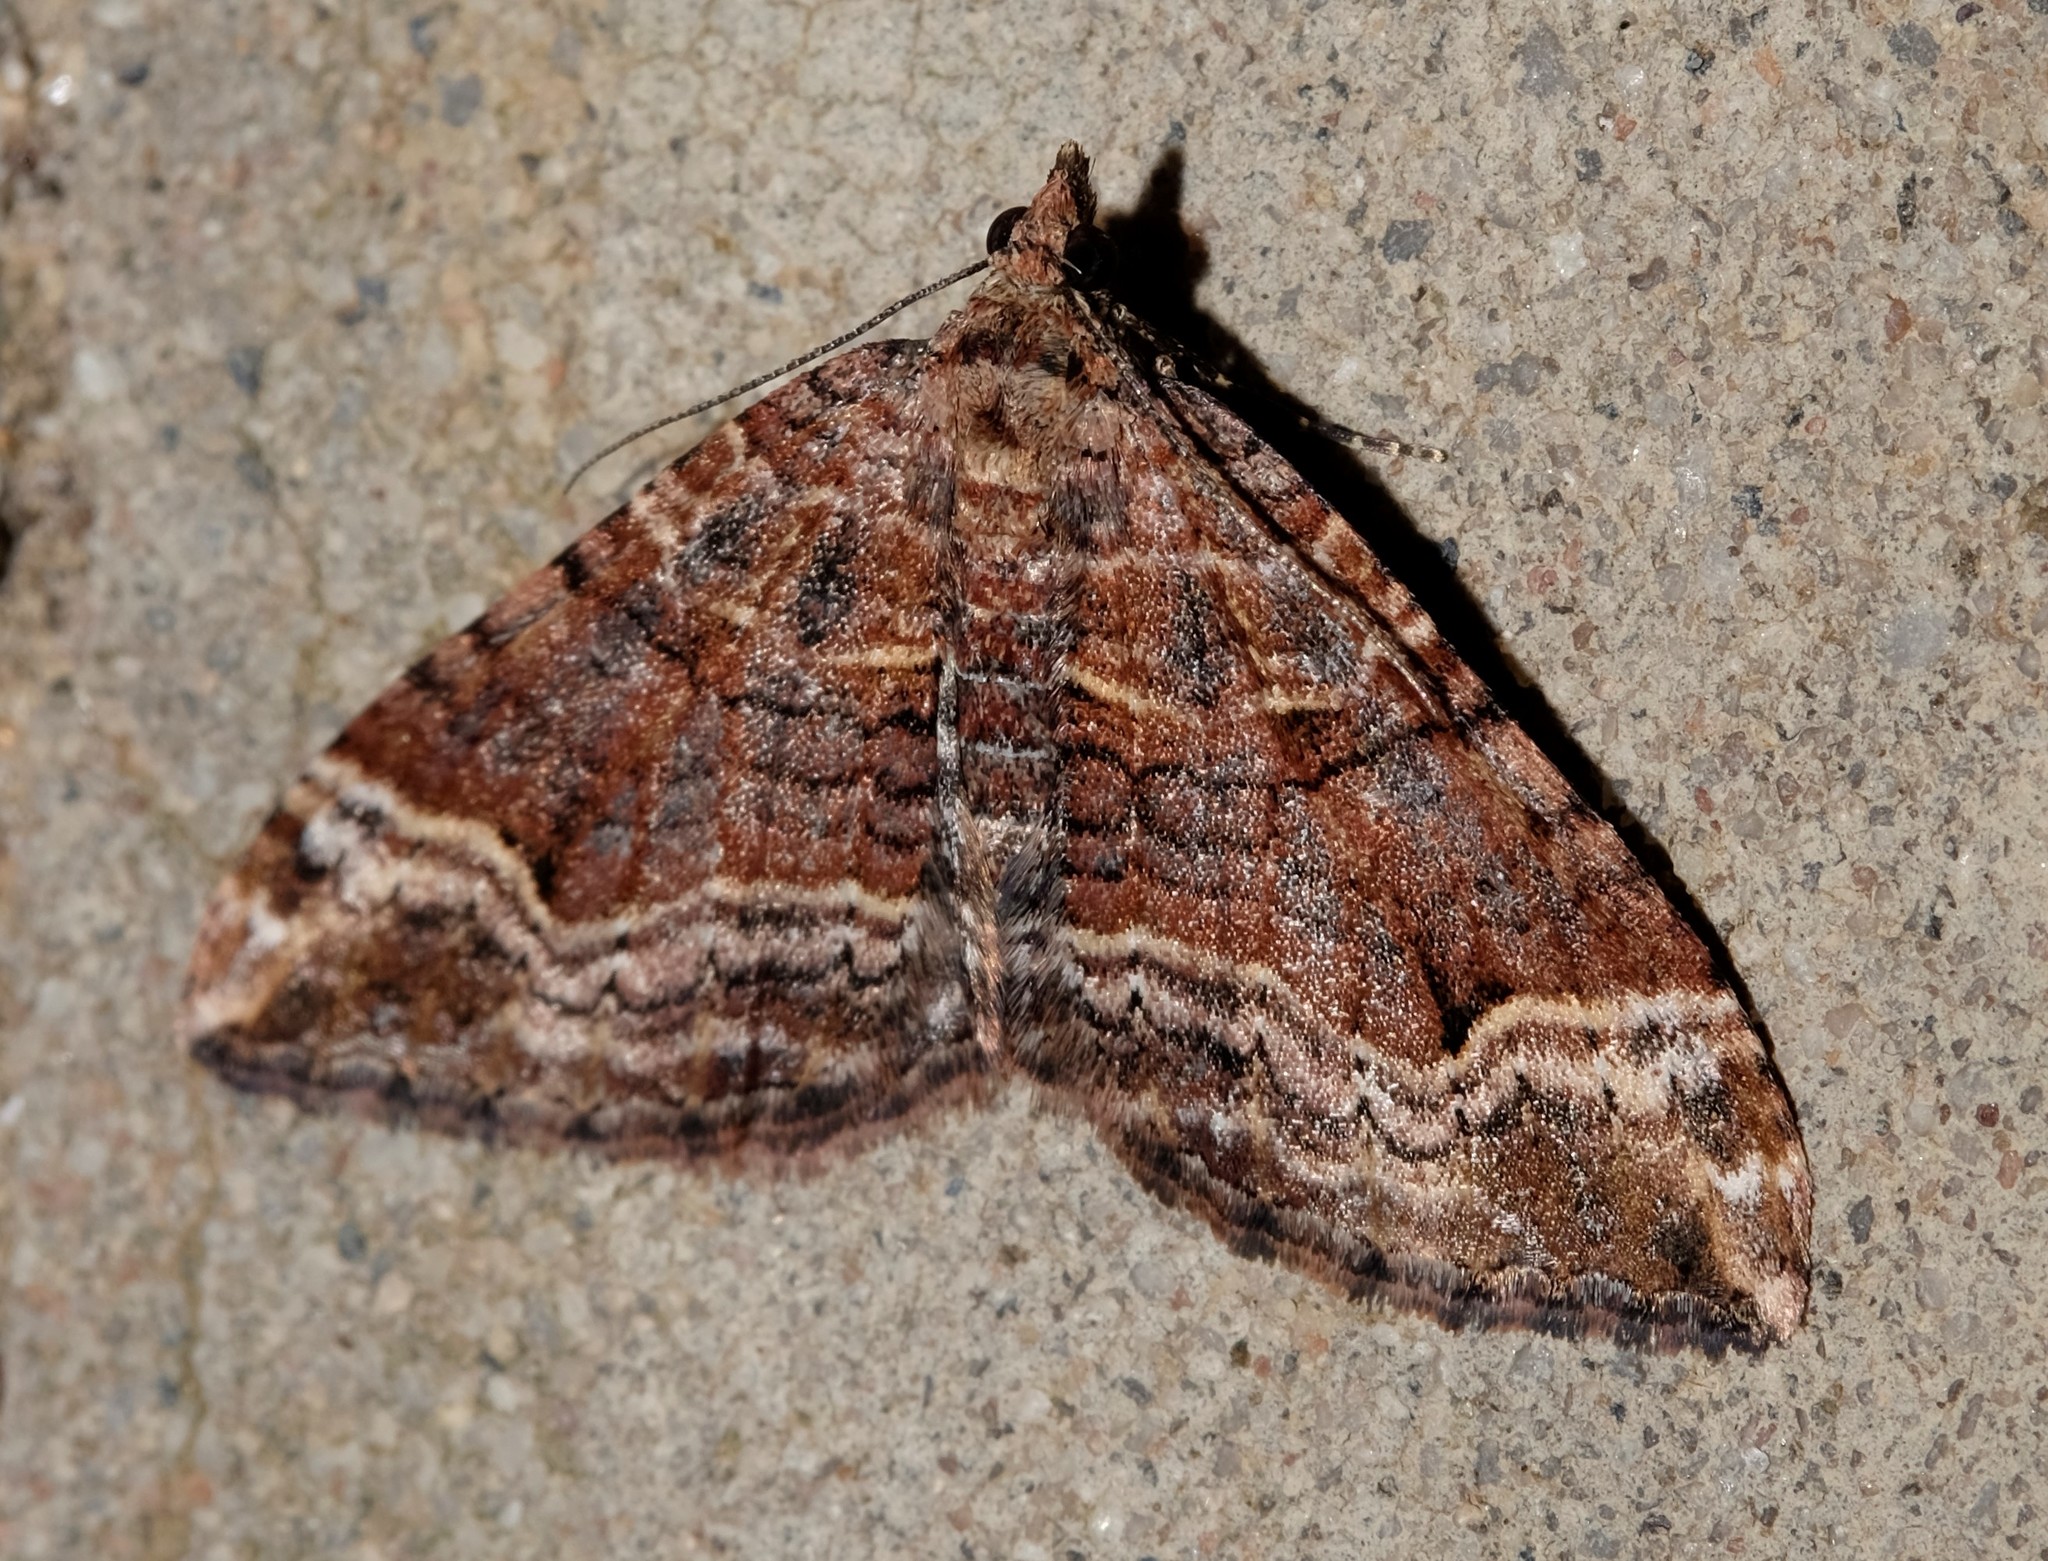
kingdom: Animalia
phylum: Arthropoda
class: Insecta
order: Lepidoptera
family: Geometridae
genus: Epyaxa
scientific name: Epyaxa subidaria
